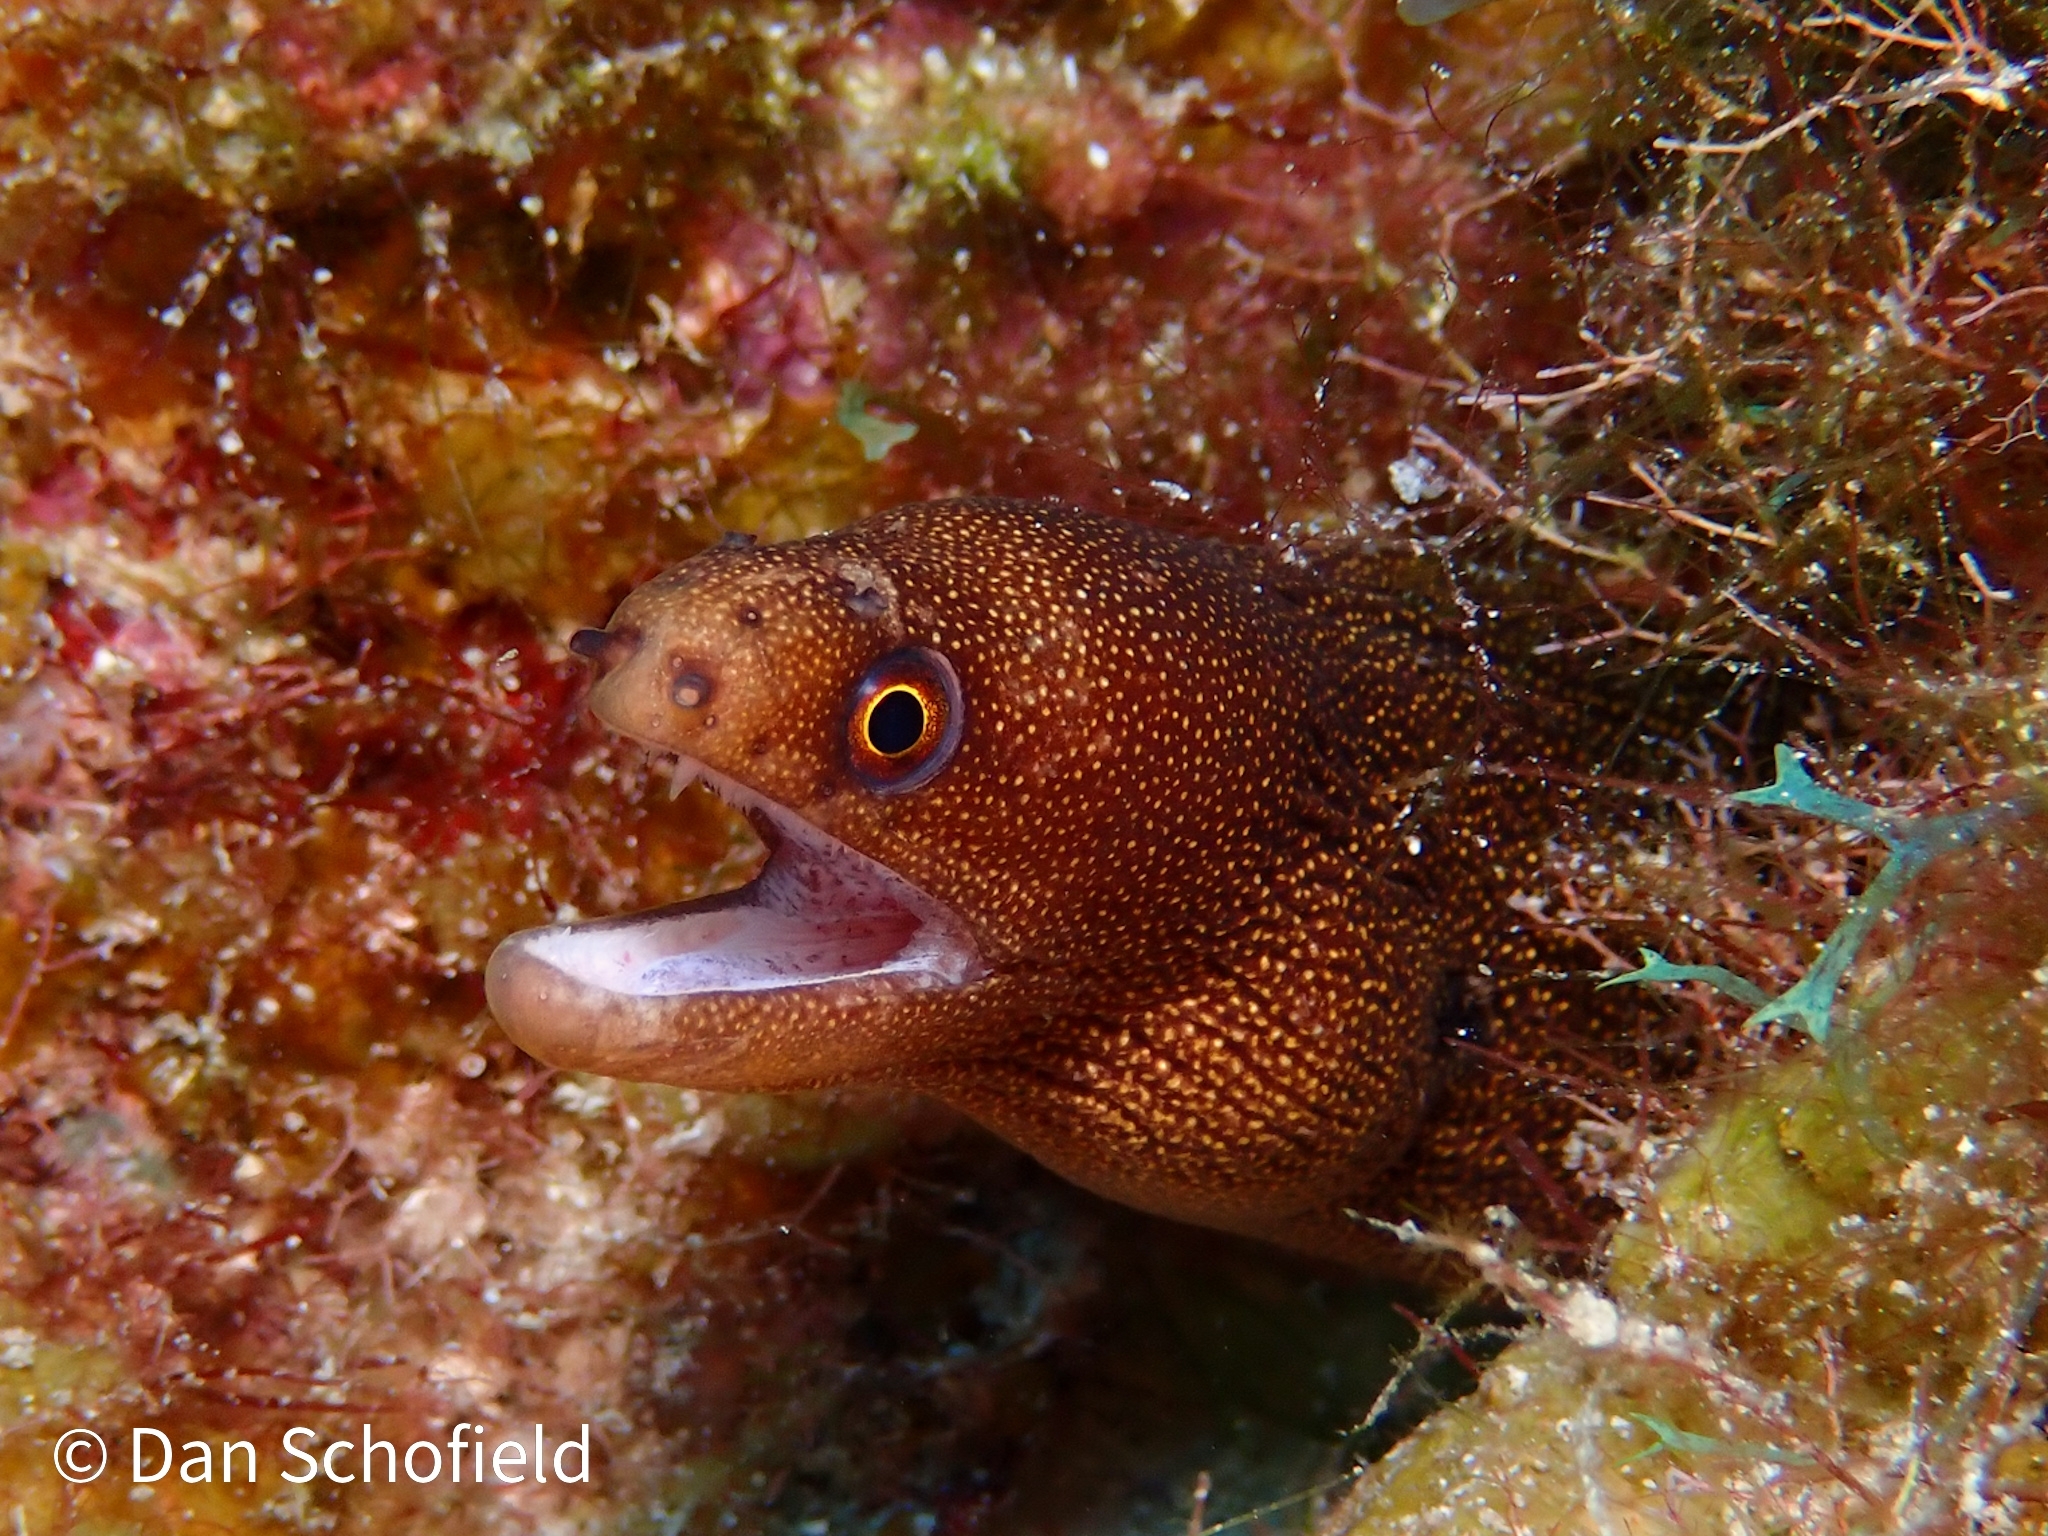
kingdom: Animalia
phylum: Chordata
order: Anguilliformes
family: Muraenidae
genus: Gymnothorax
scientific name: Gymnothorax miliaris
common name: Goldentail moray
